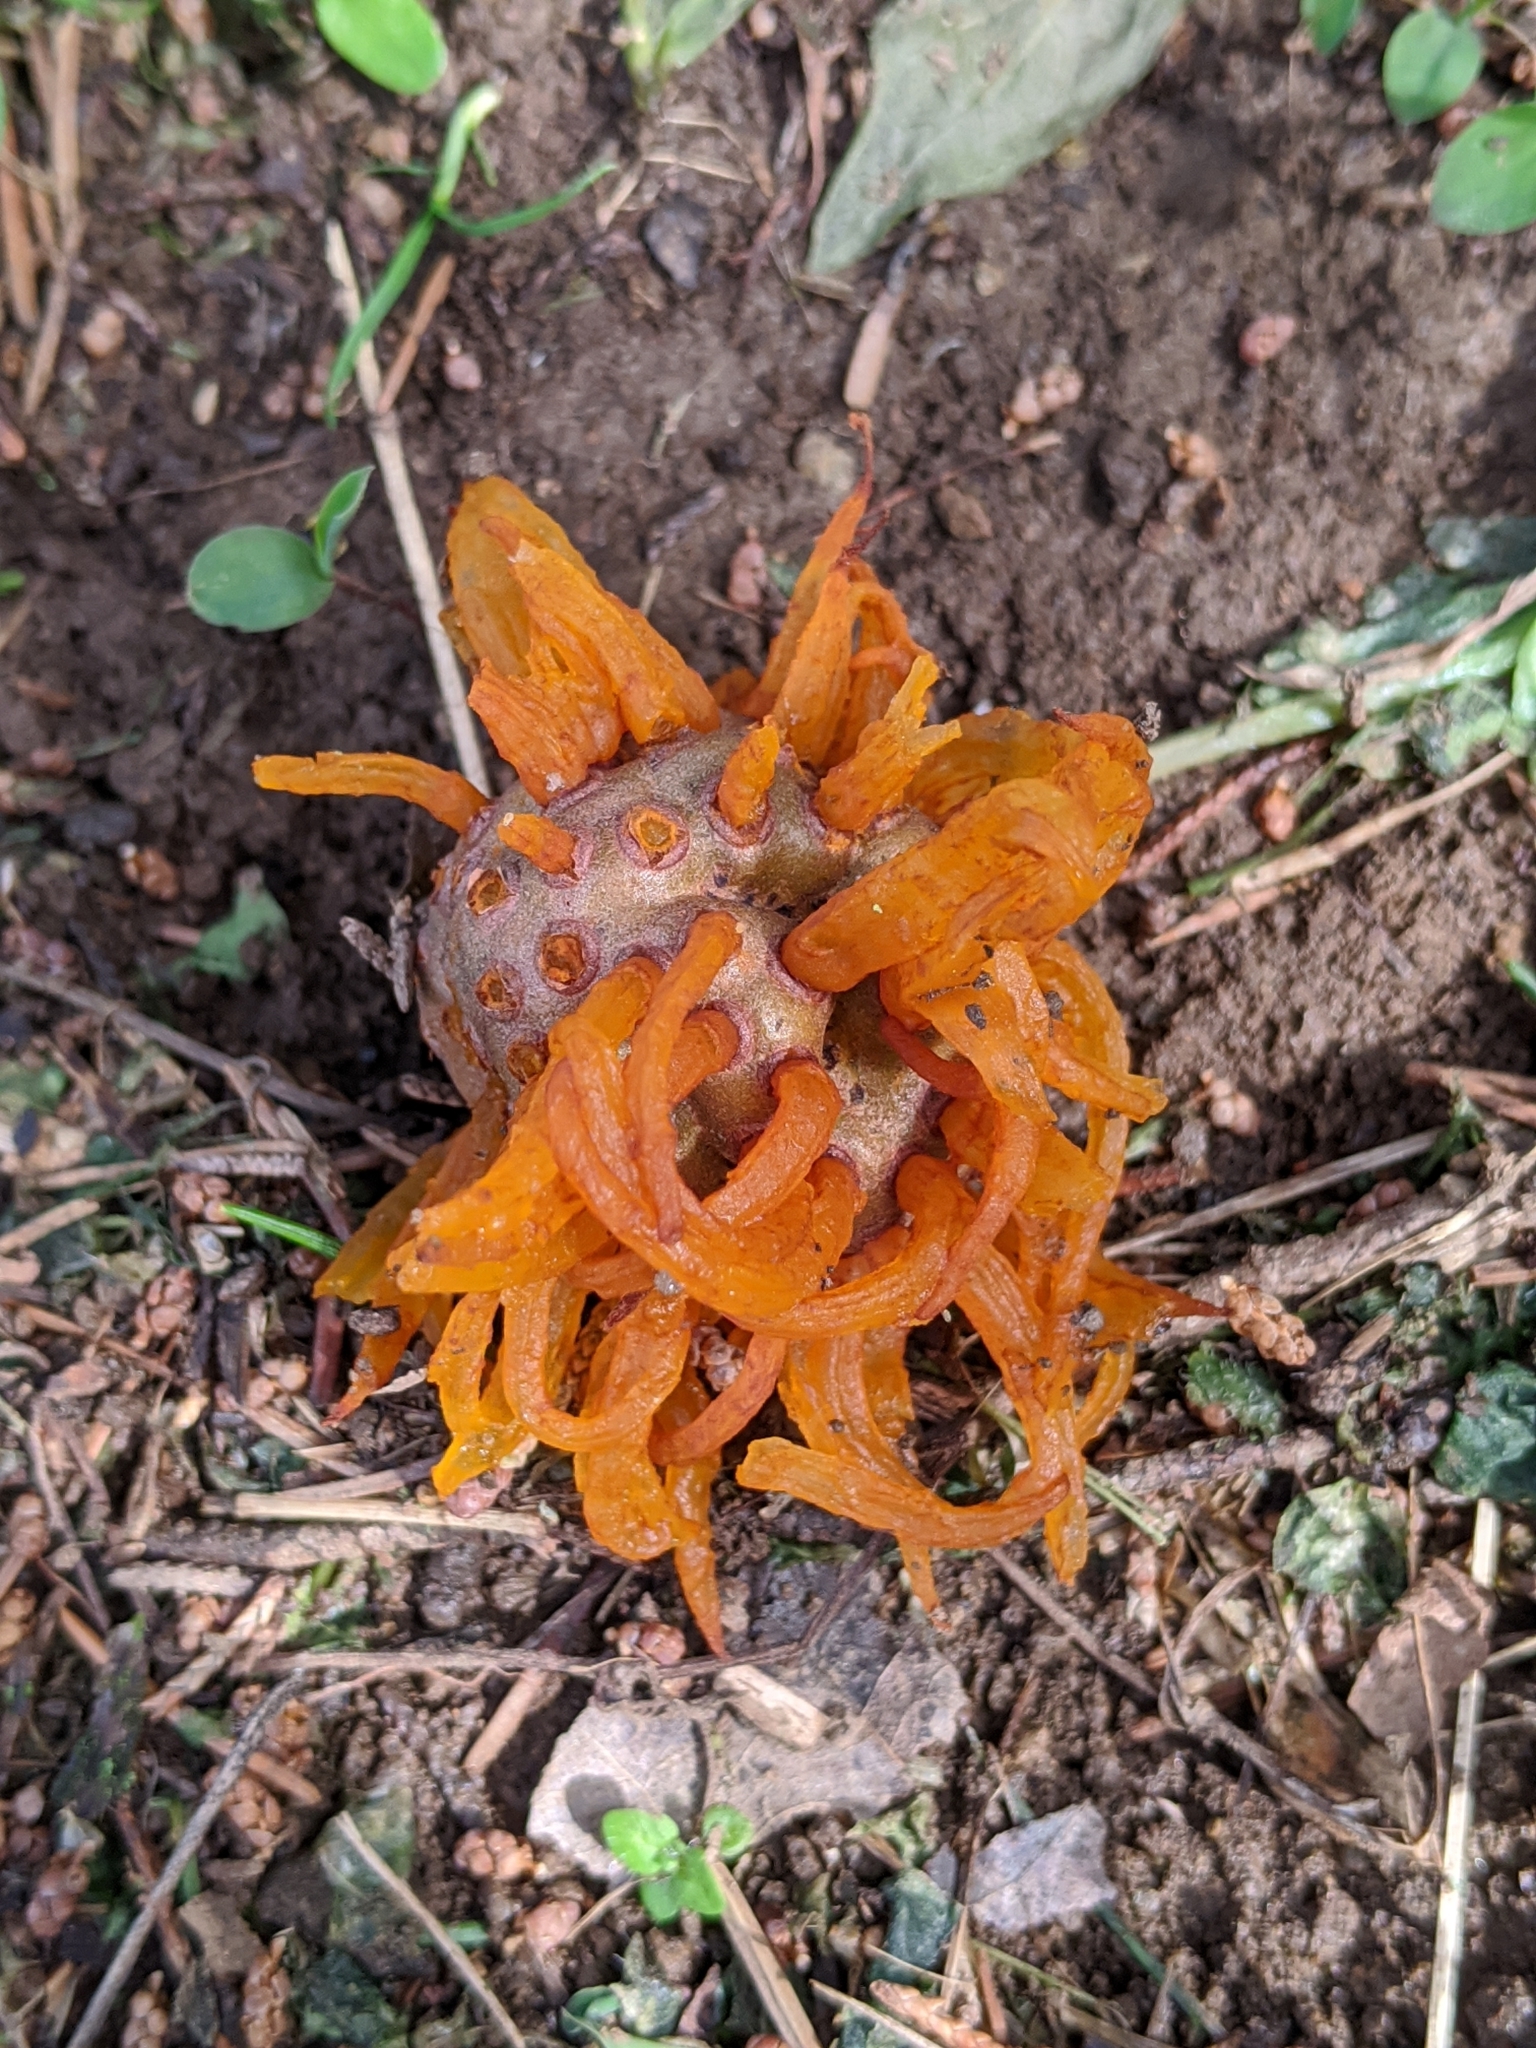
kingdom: Fungi
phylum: Basidiomycota
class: Pucciniomycetes
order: Pucciniales
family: Gymnosporangiaceae
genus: Gymnosporangium
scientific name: Gymnosporangium juniperi-virginianae
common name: Juniper-apple rust
